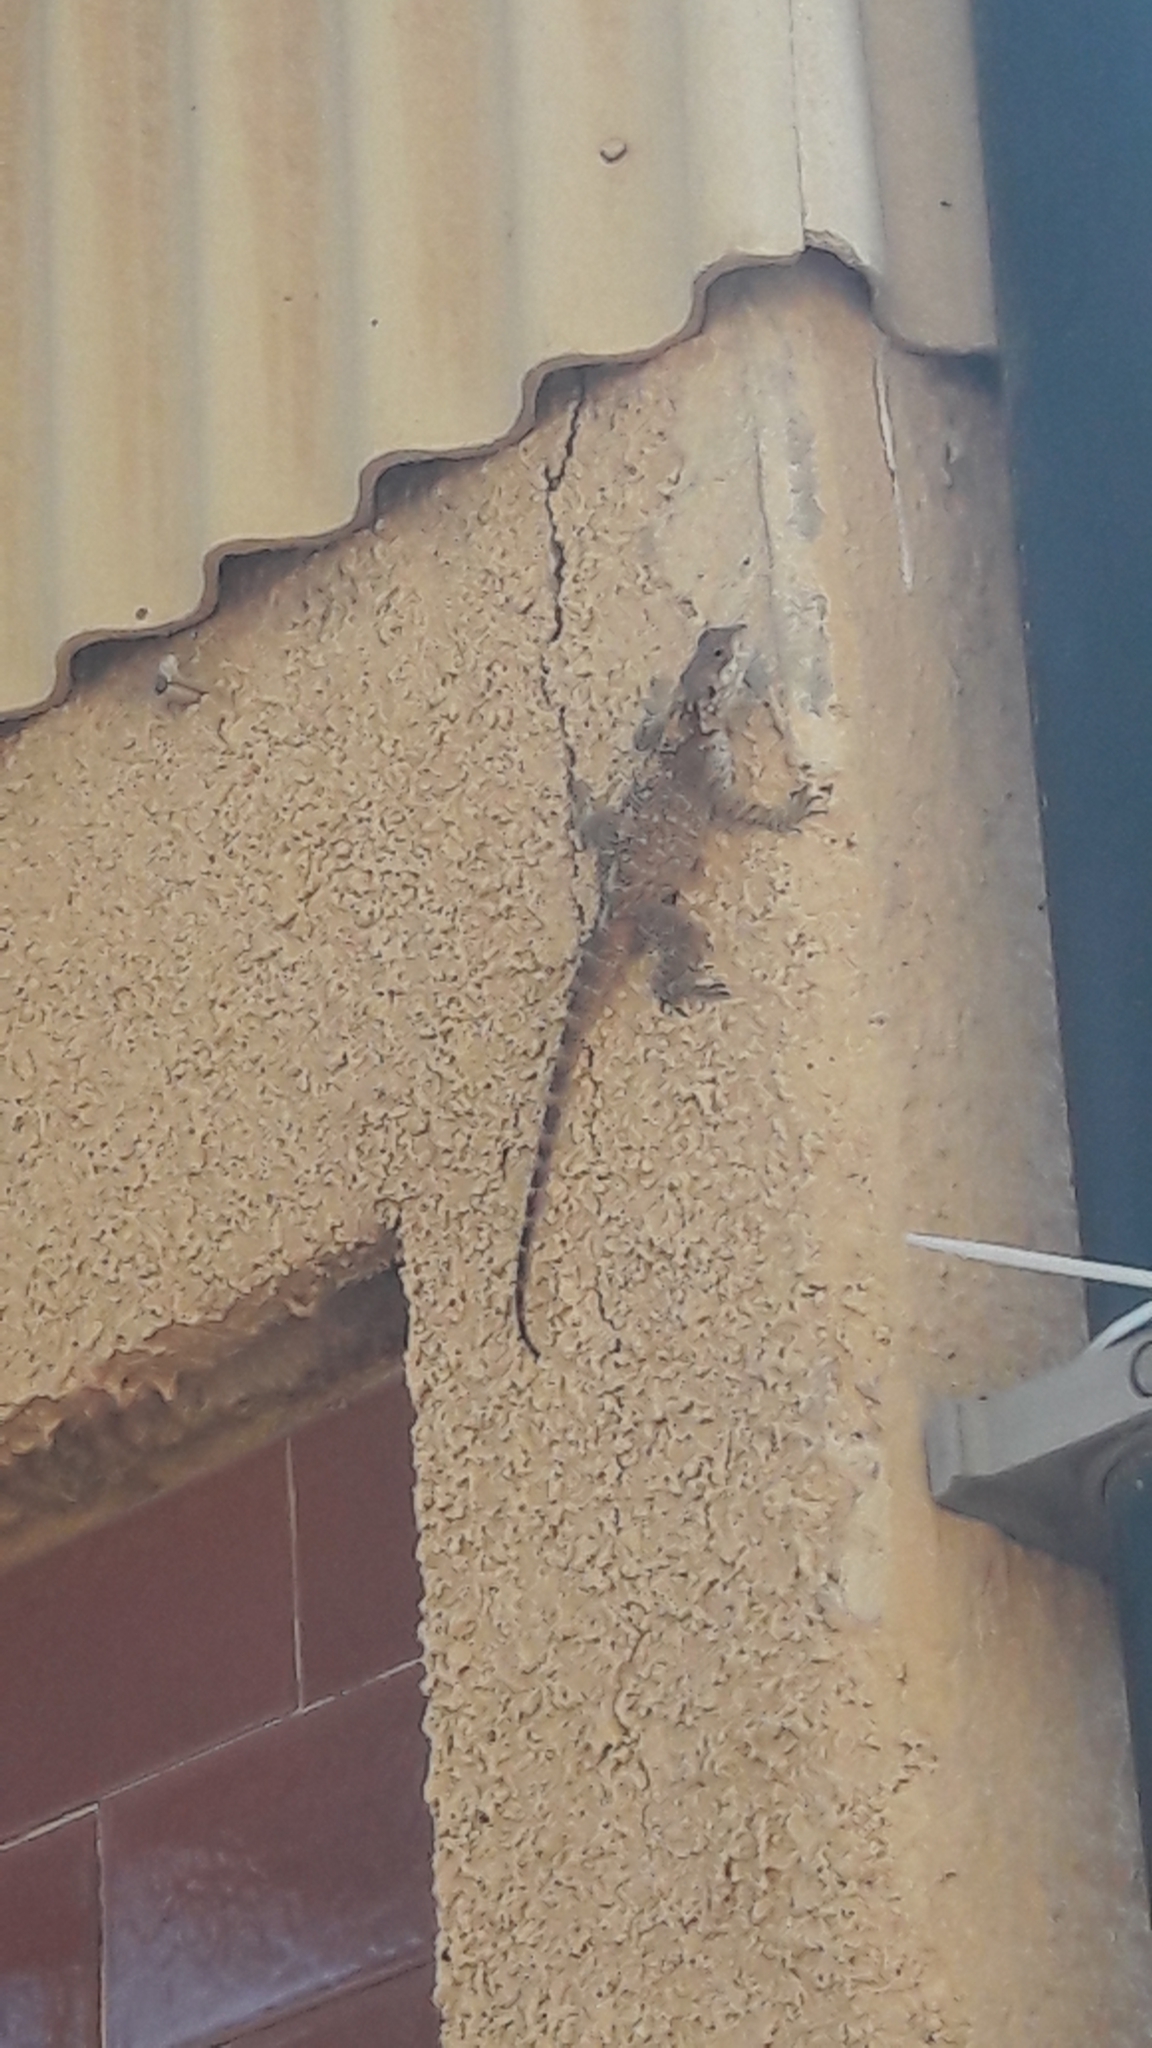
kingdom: Animalia
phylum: Chordata
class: Squamata
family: Agamidae
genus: Laudakia
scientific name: Laudakia vulgaris
